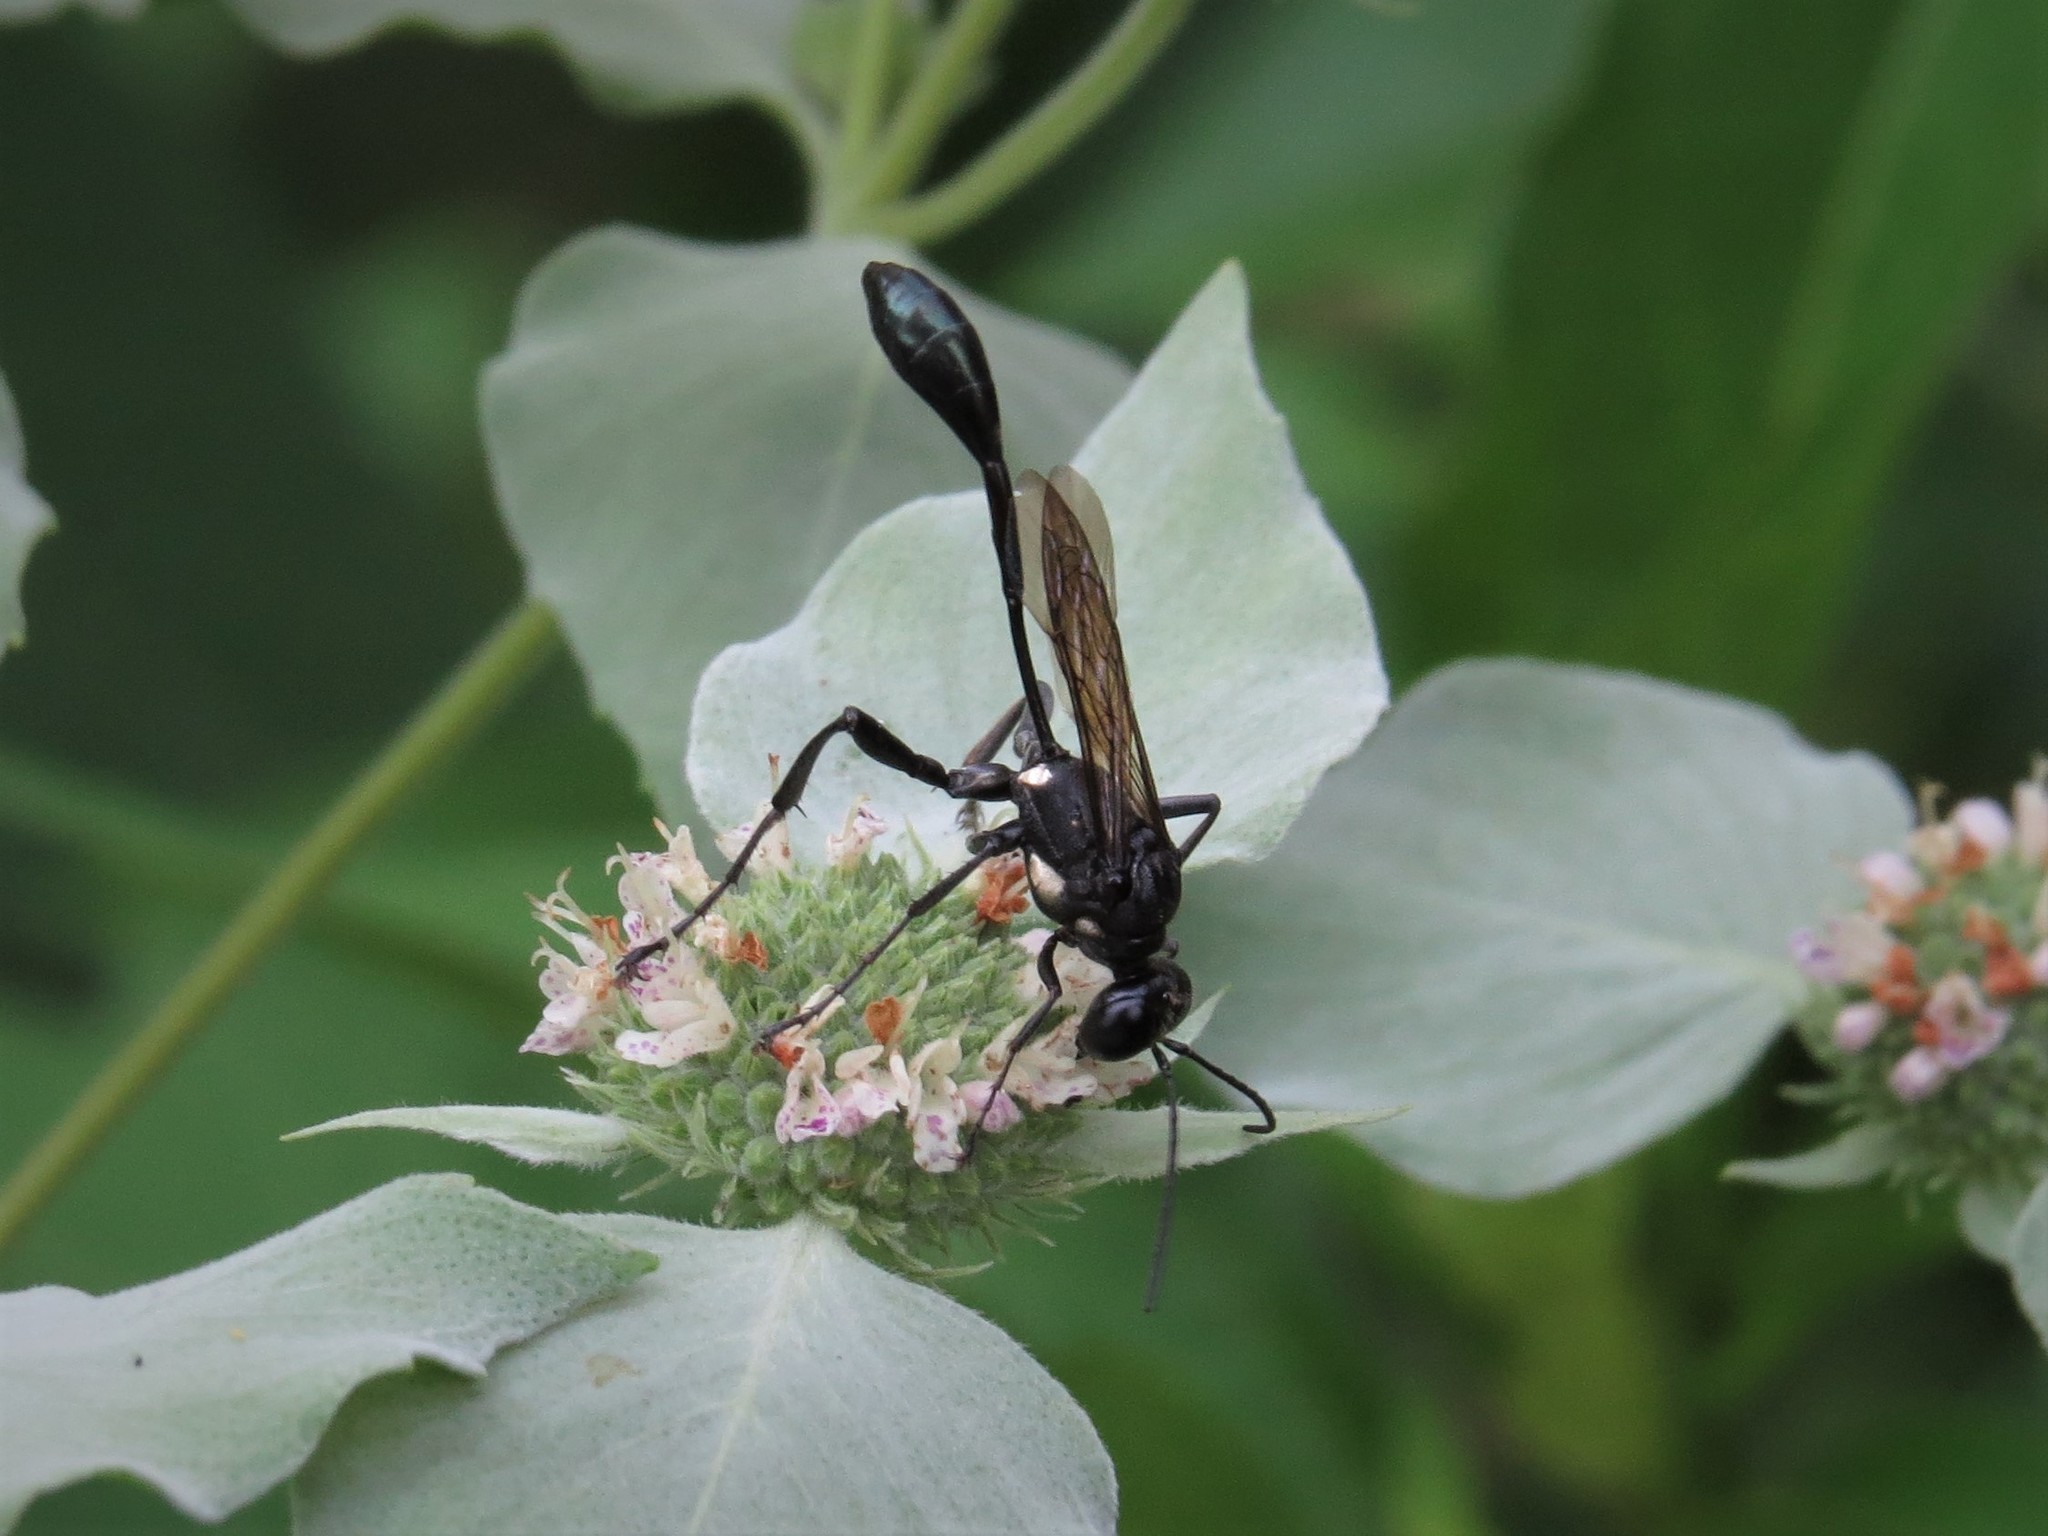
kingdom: Animalia
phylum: Arthropoda
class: Insecta
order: Hymenoptera
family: Sphecidae
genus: Eremnophila
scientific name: Eremnophila aureonotata
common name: Gold-marked thread-waisted wasp
